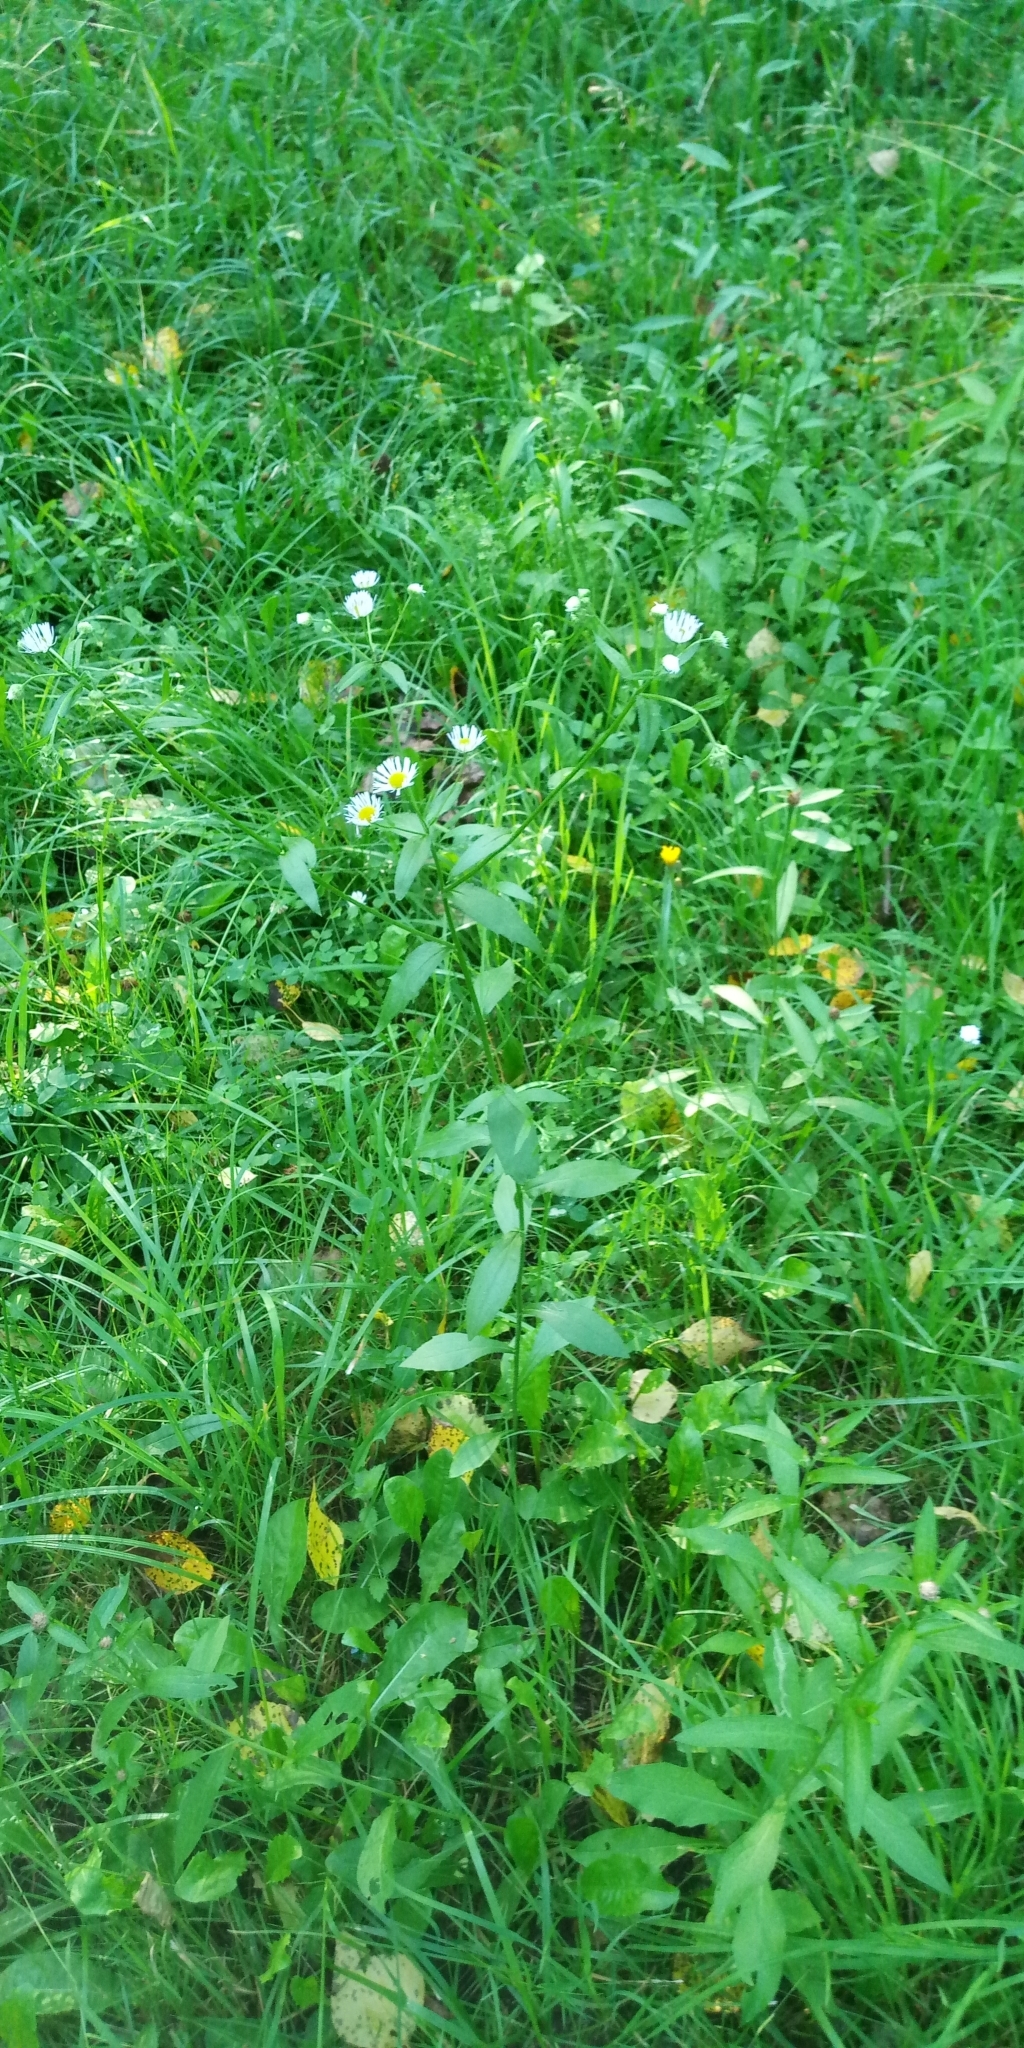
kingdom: Plantae
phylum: Tracheophyta
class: Magnoliopsida
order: Asterales
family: Asteraceae
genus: Erigeron
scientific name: Erigeron annuus
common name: Tall fleabane
